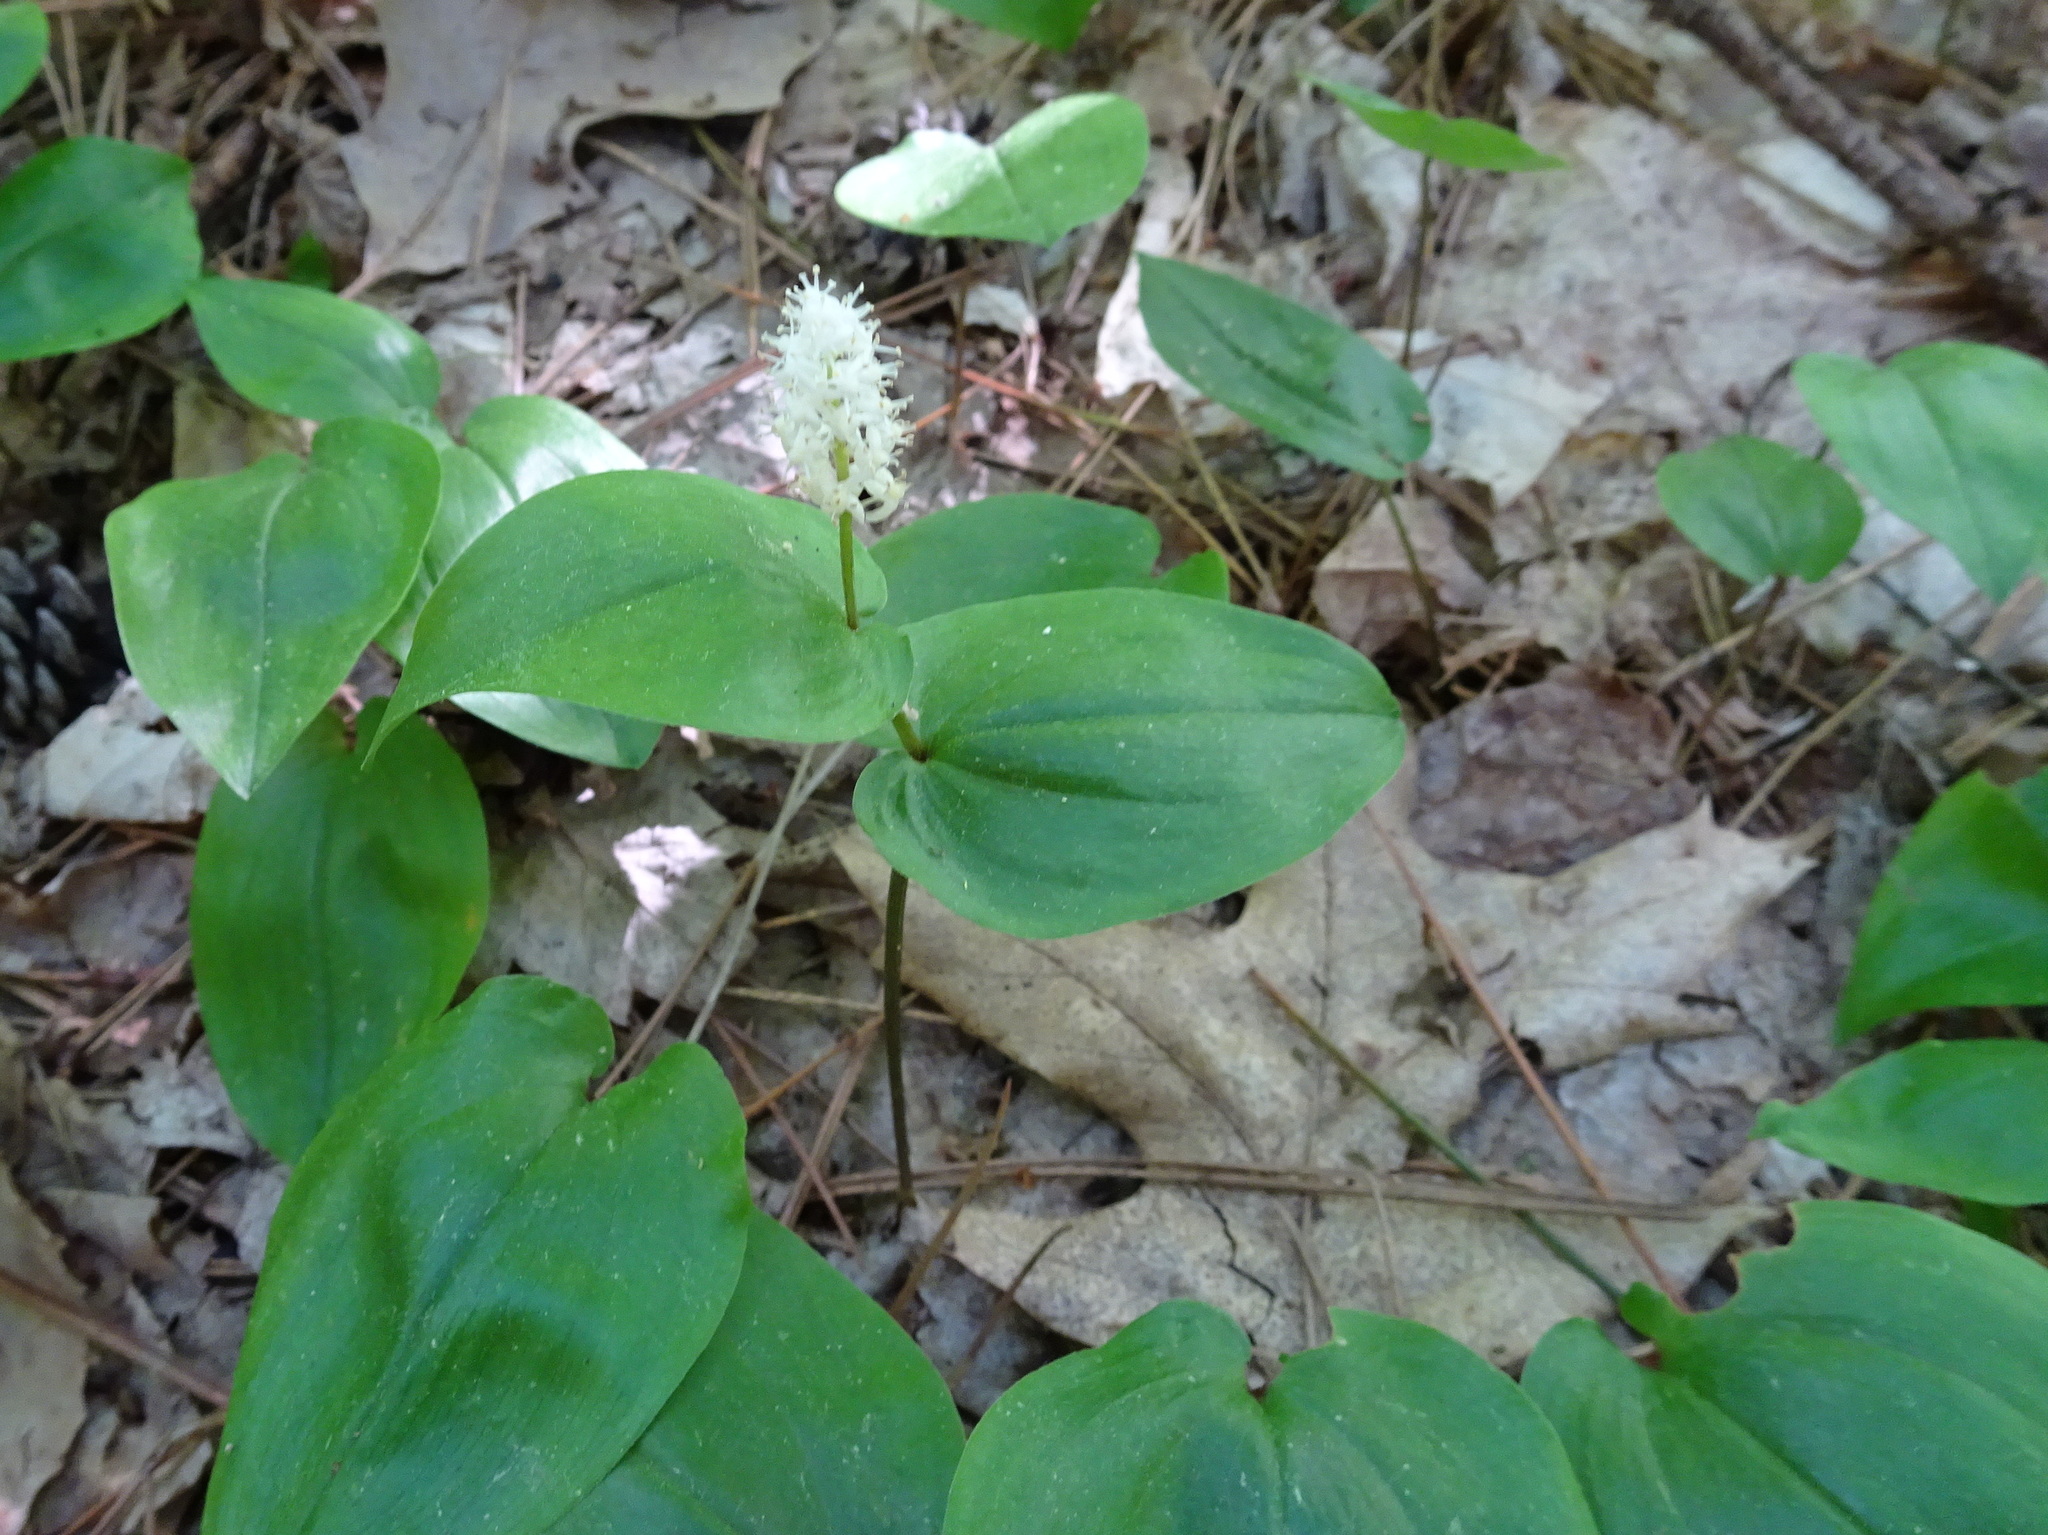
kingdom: Plantae
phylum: Tracheophyta
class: Liliopsida
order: Asparagales
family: Asparagaceae
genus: Maianthemum
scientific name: Maianthemum canadense
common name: False lily-of-the-valley
